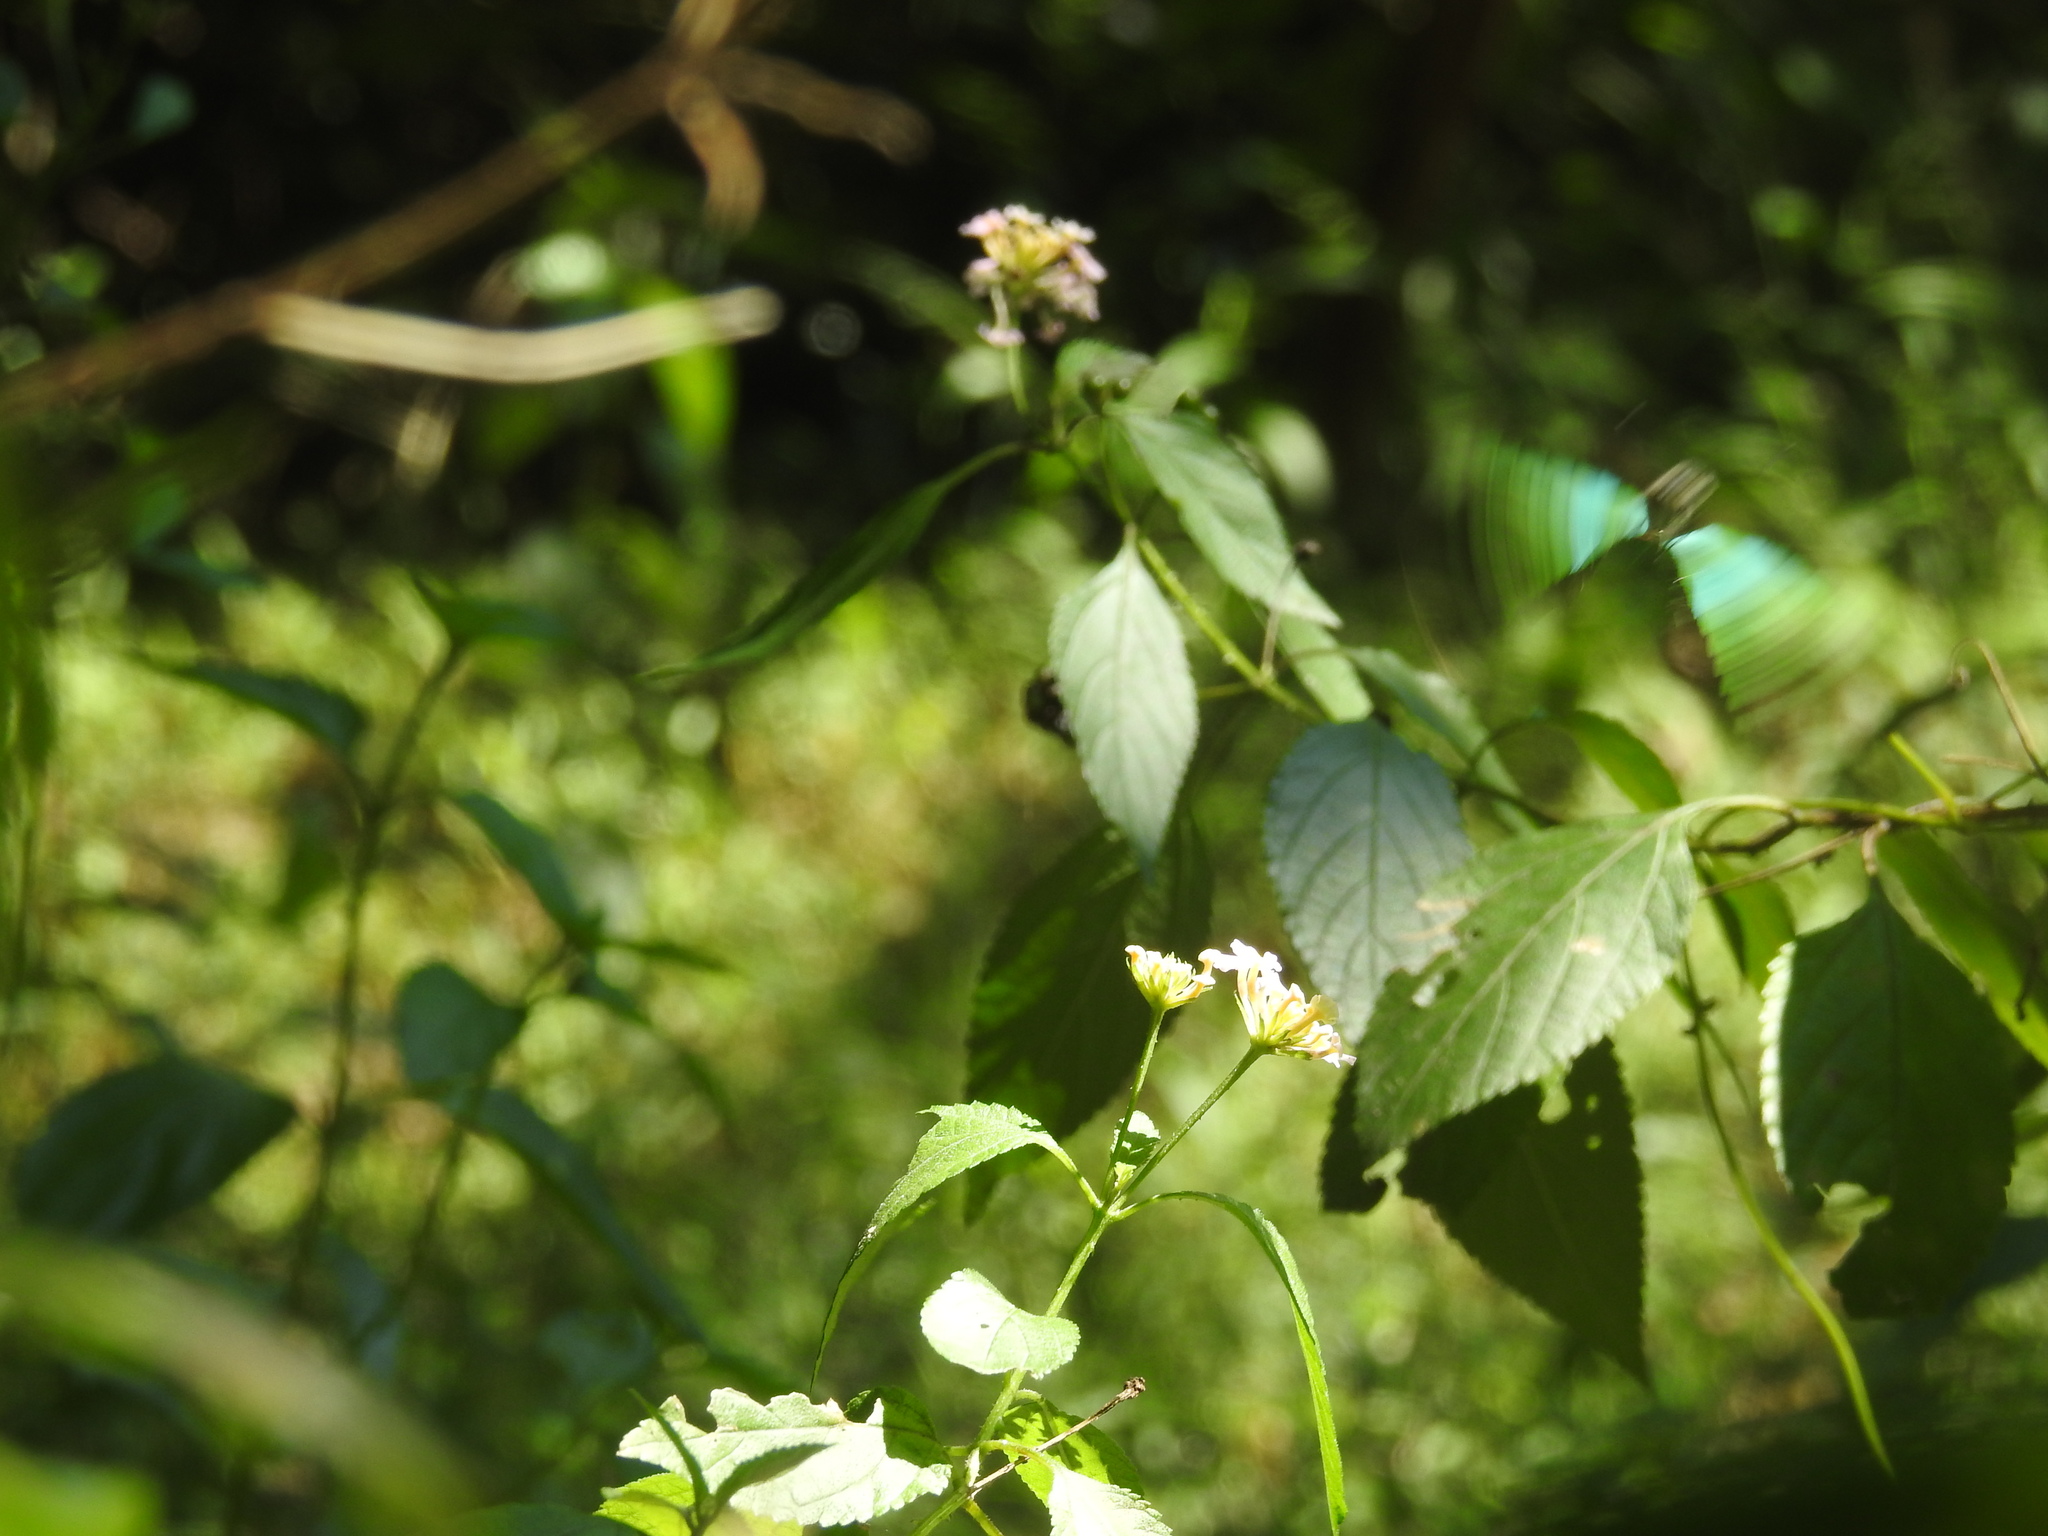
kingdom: Plantae
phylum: Tracheophyta
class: Magnoliopsida
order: Lamiales
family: Verbenaceae
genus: Lantana
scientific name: Lantana camara
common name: Lantana
